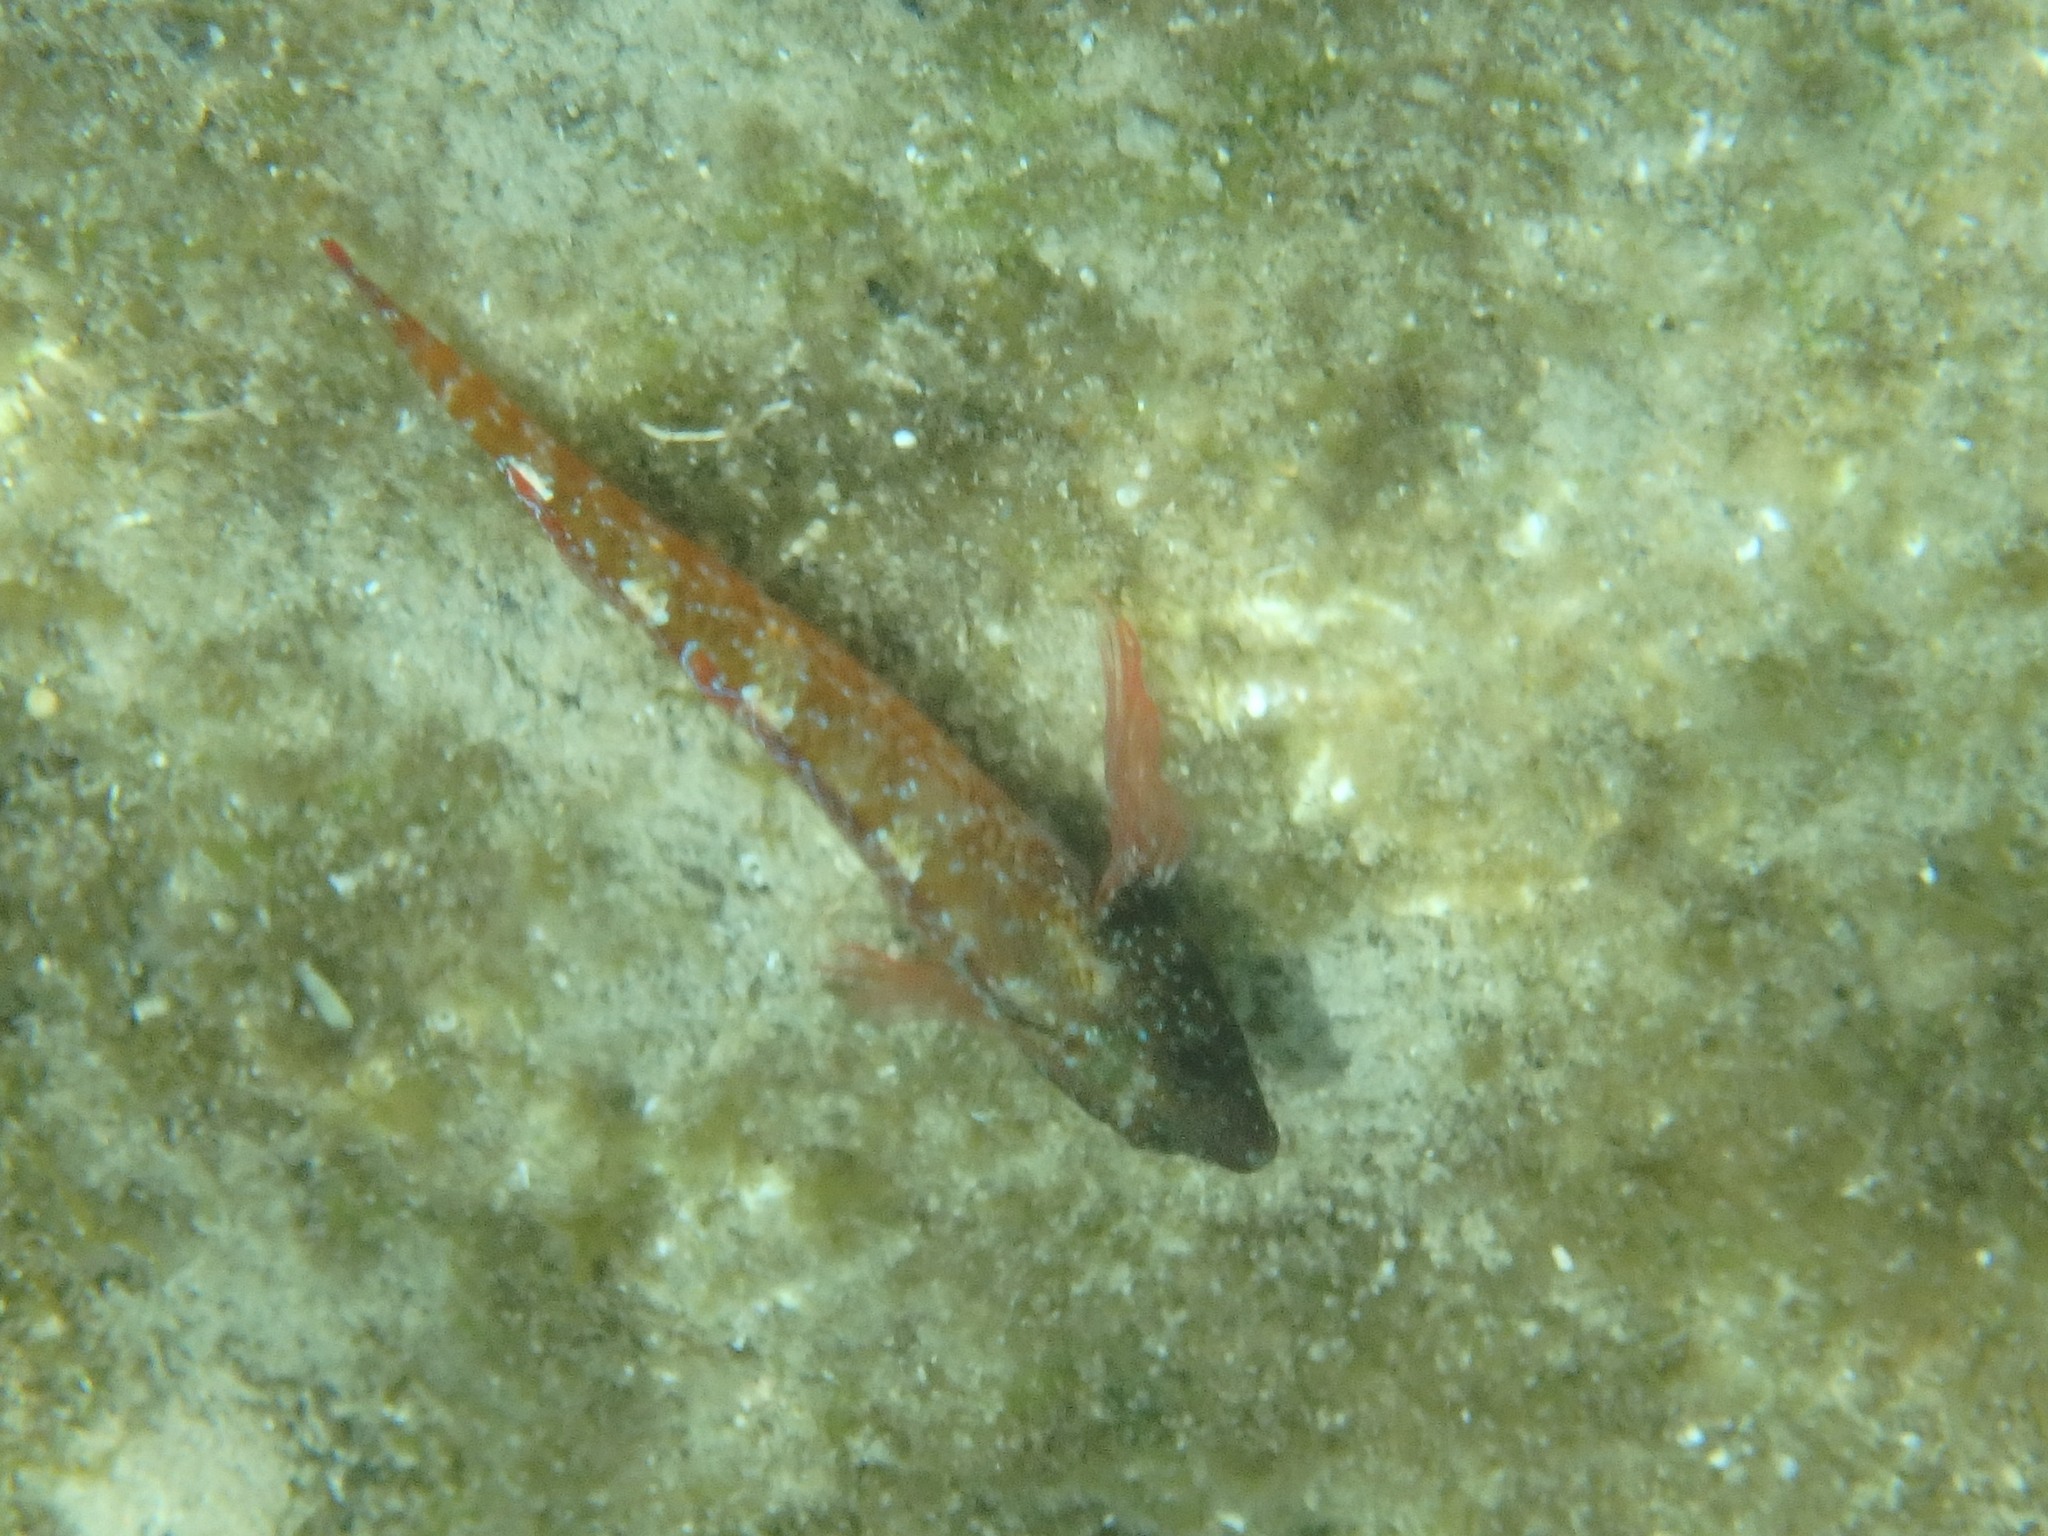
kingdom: Animalia
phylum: Chordata
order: Perciformes
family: Tripterygiidae
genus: Tripterygion
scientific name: Tripterygion tripteronotum
